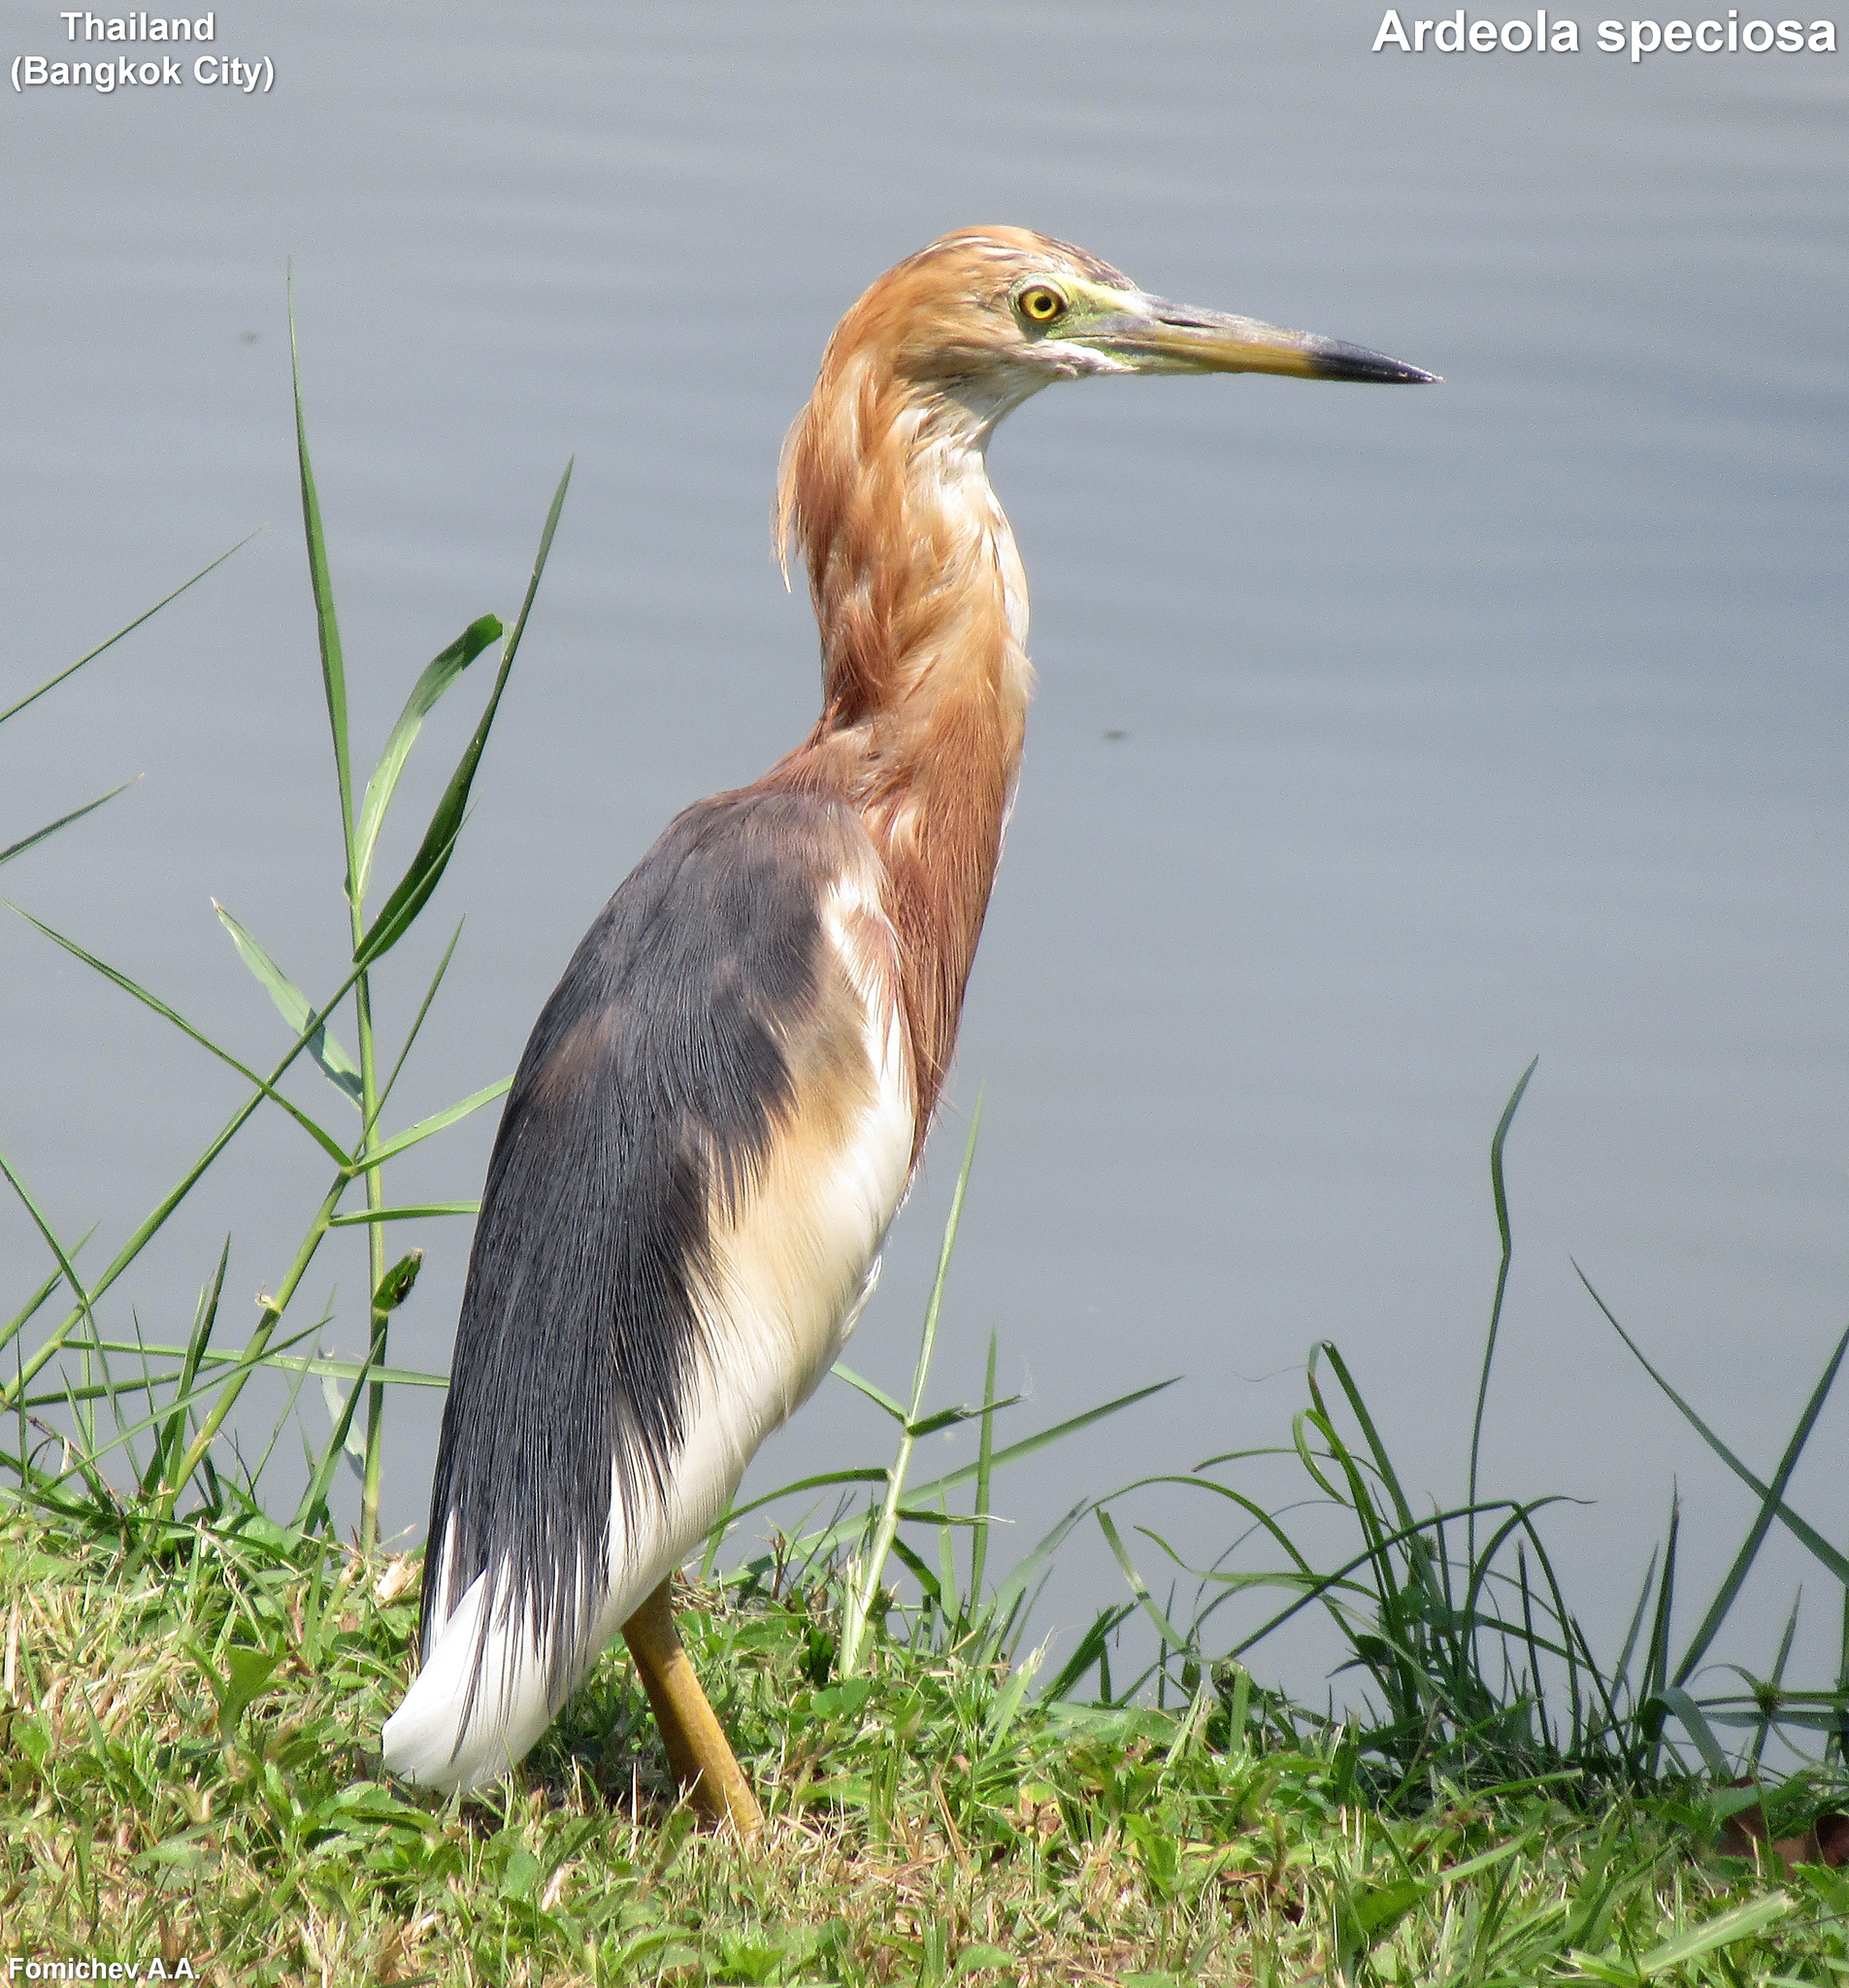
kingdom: Animalia
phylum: Chordata
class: Aves
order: Pelecaniformes
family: Ardeidae
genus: Ardeola
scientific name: Ardeola speciosa
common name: Javan pond heron
